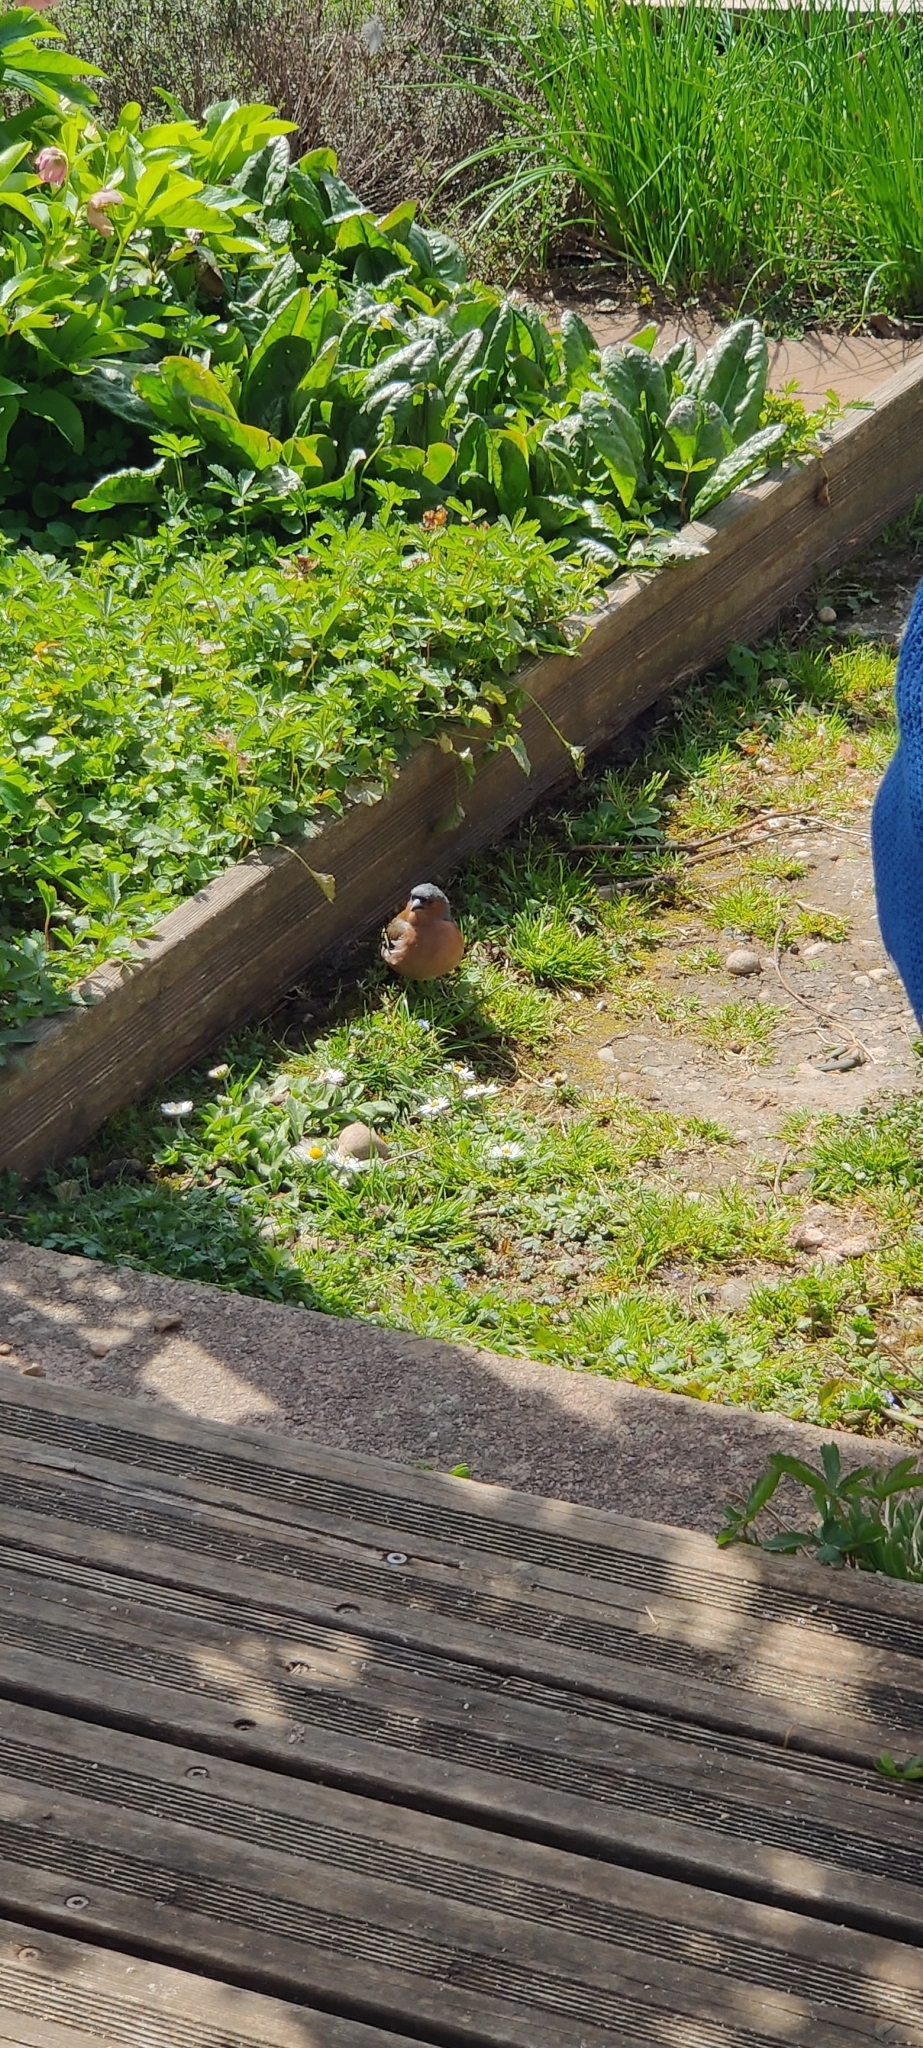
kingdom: Animalia
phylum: Chordata
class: Aves
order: Passeriformes
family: Fringillidae
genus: Fringilla
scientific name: Fringilla coelebs
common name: Common chaffinch
